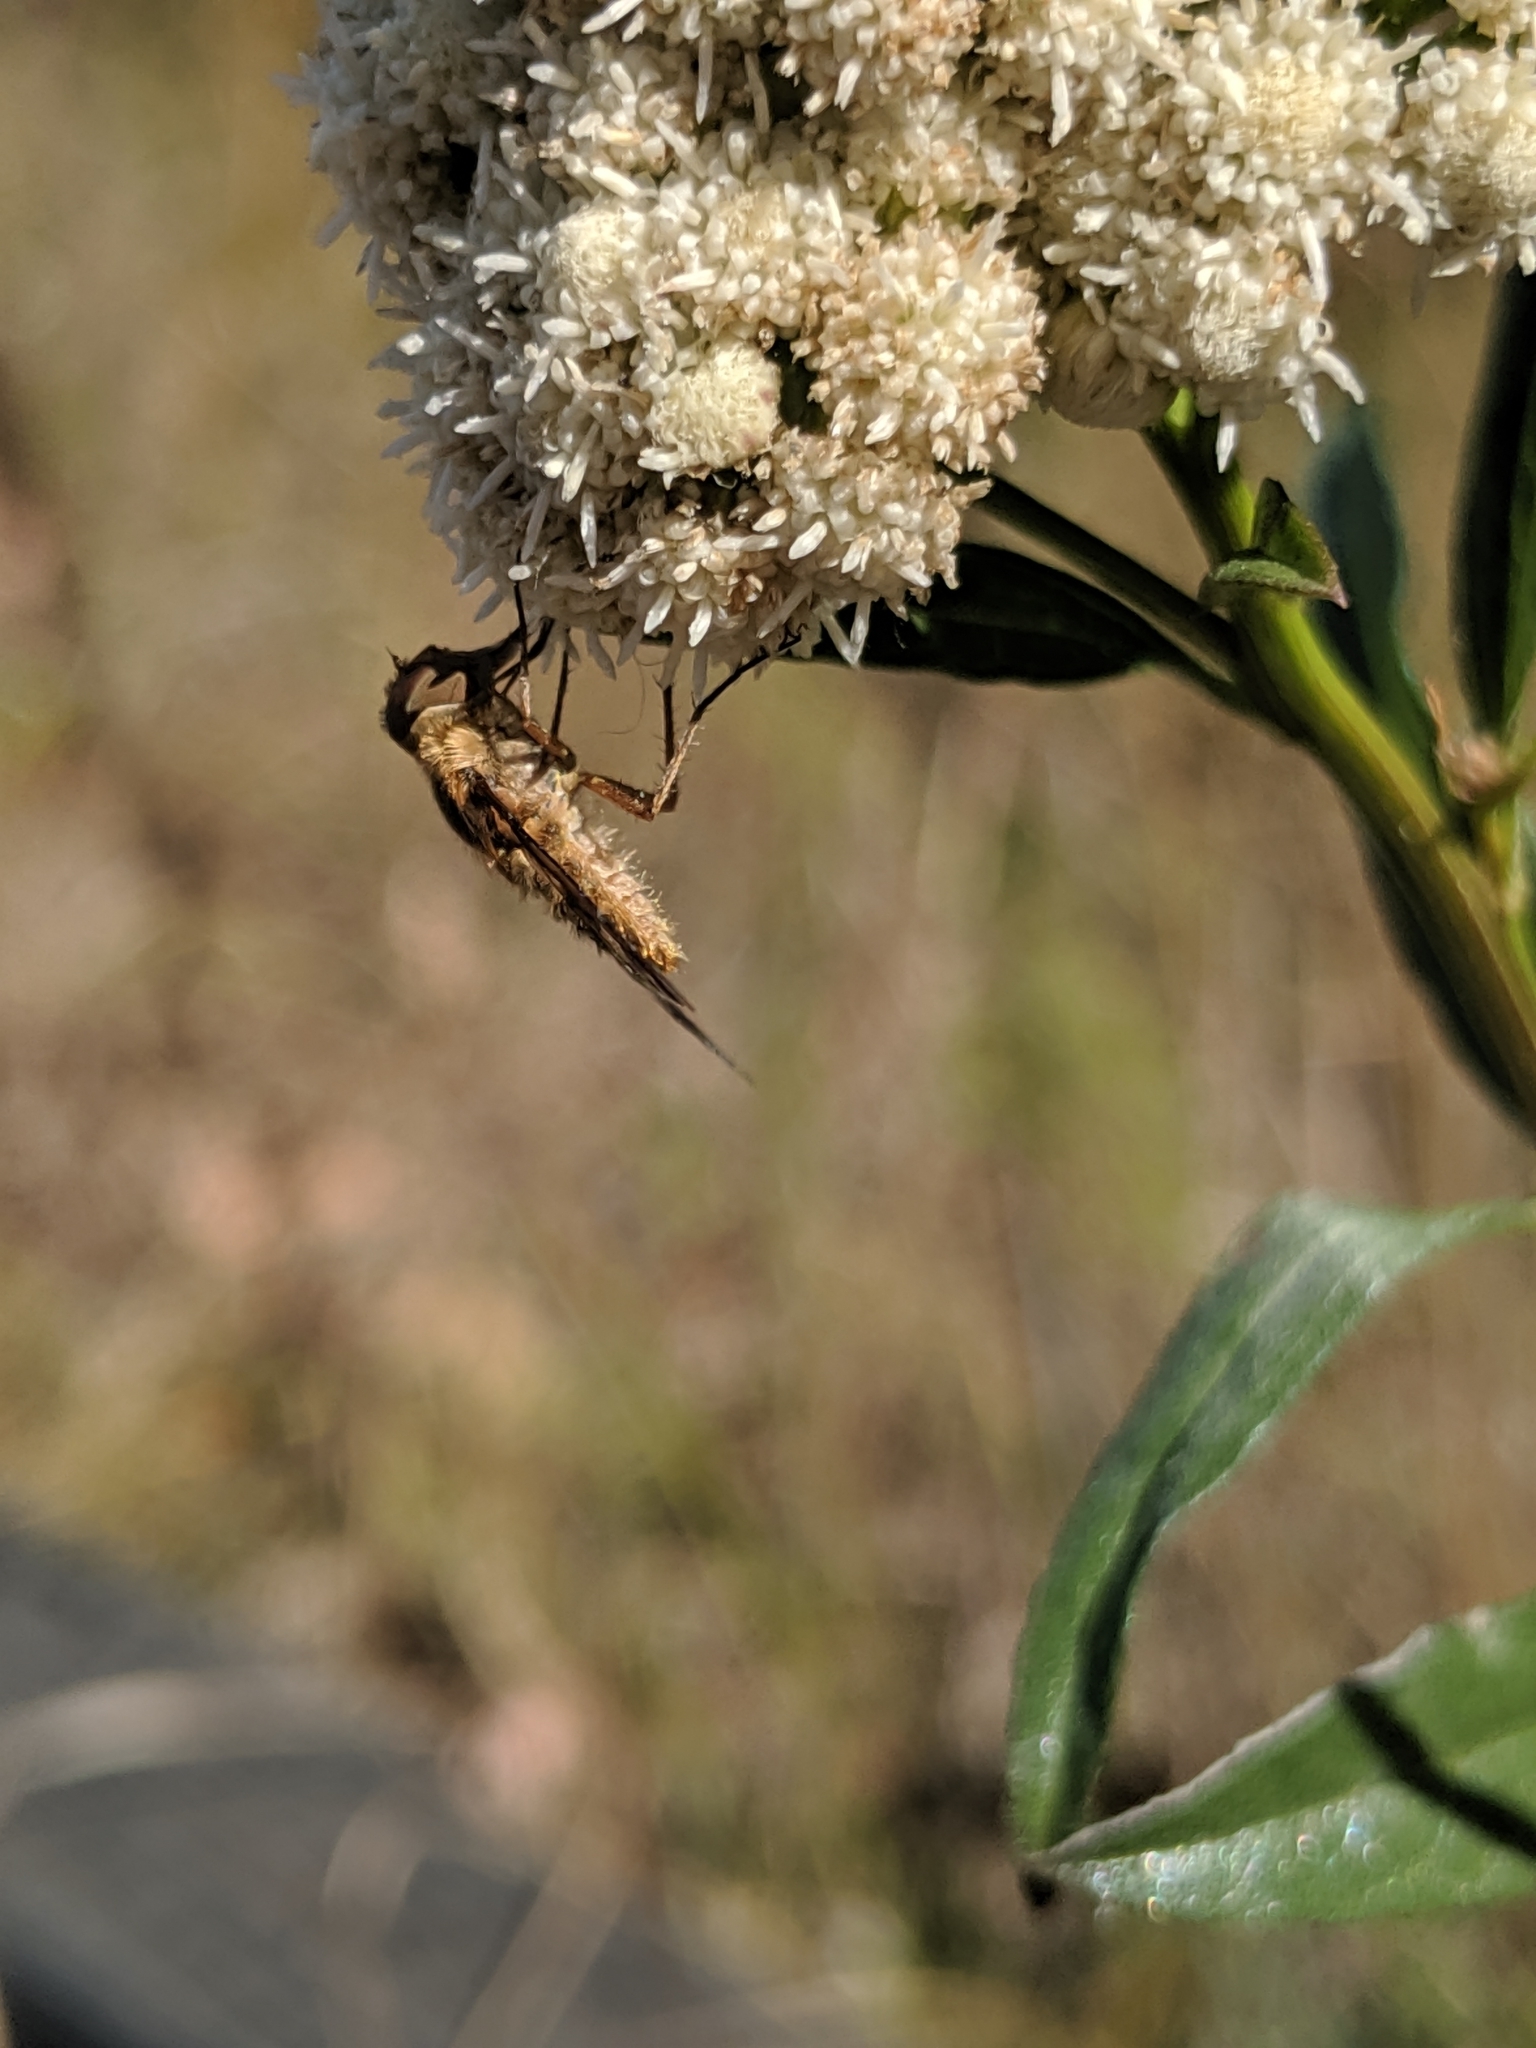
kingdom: Animalia
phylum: Arthropoda
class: Insecta
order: Diptera
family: Bombyliidae
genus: Dipalta
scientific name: Dipalta serpentina
